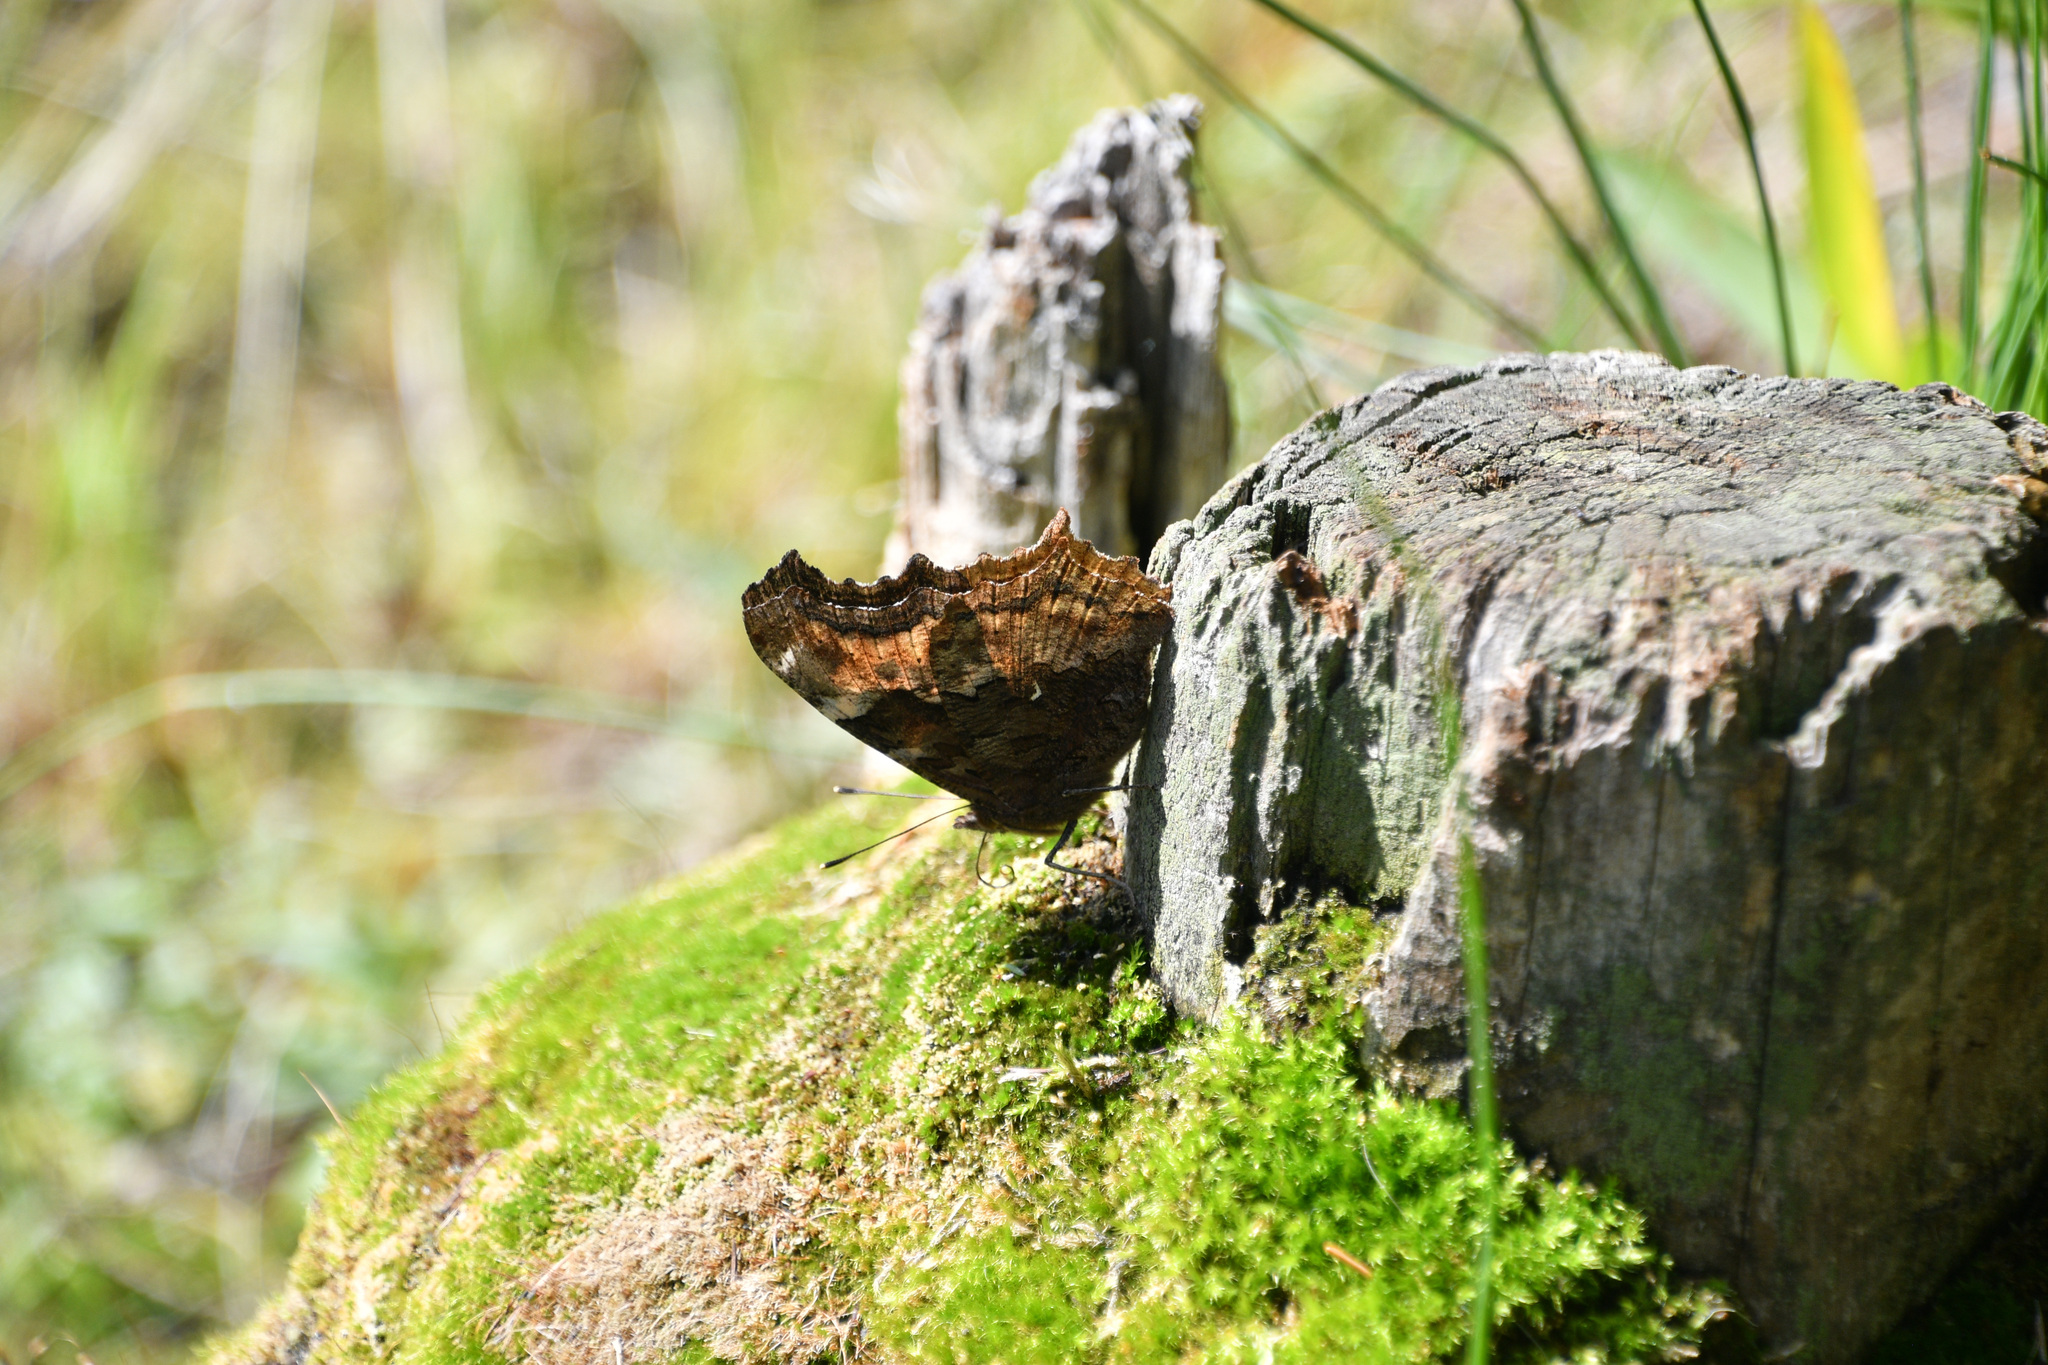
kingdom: Animalia
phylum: Arthropoda
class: Insecta
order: Lepidoptera
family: Nymphalidae
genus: Polygonia
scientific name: Polygonia vaualbum
